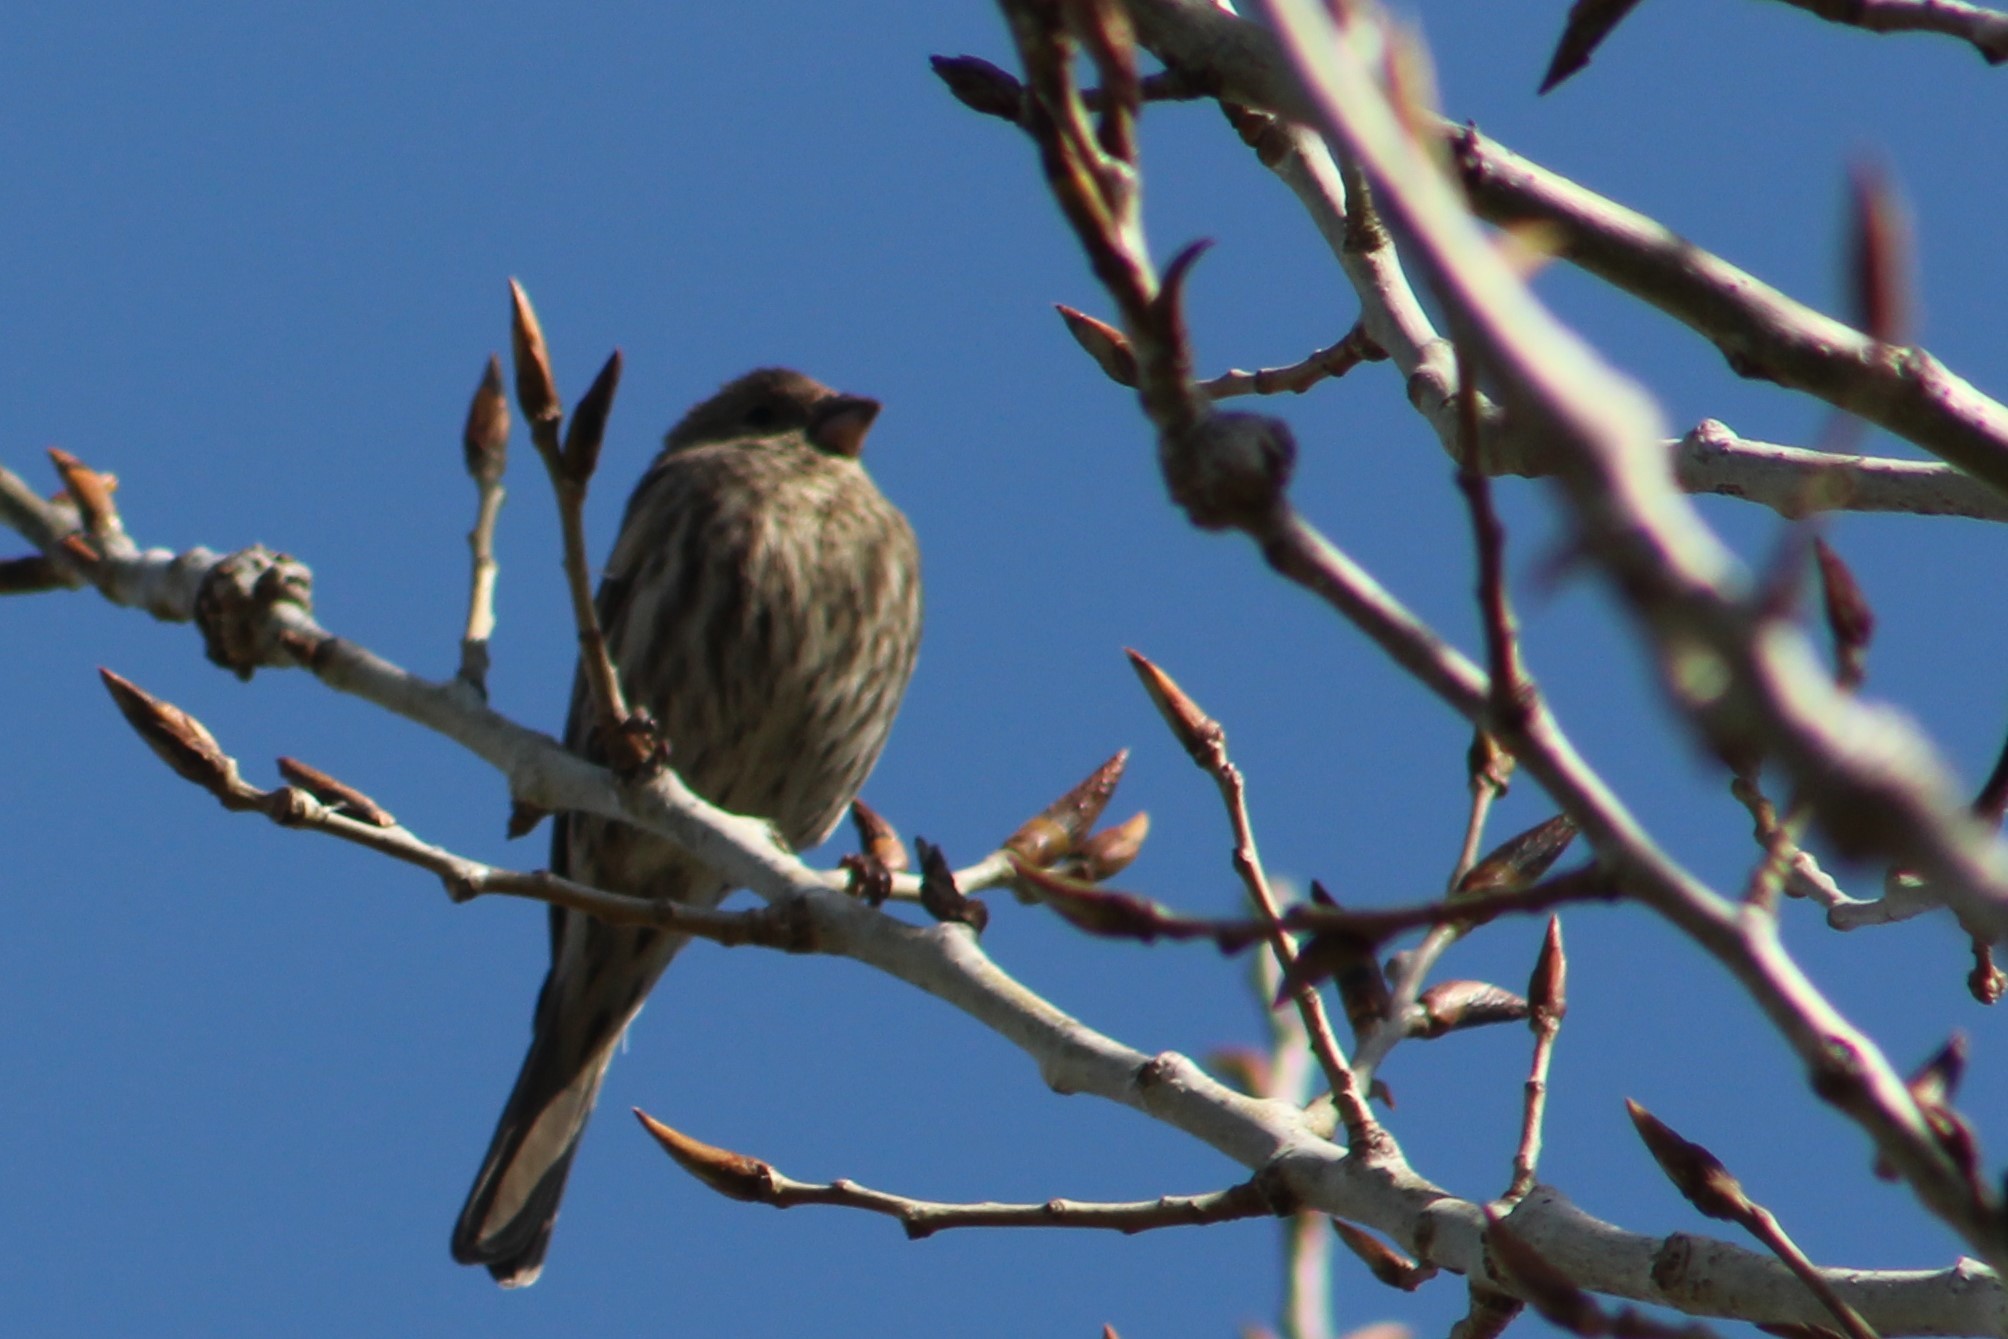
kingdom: Animalia
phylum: Chordata
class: Aves
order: Passeriformes
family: Fringillidae
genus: Haemorhous
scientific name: Haemorhous mexicanus
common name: House finch
